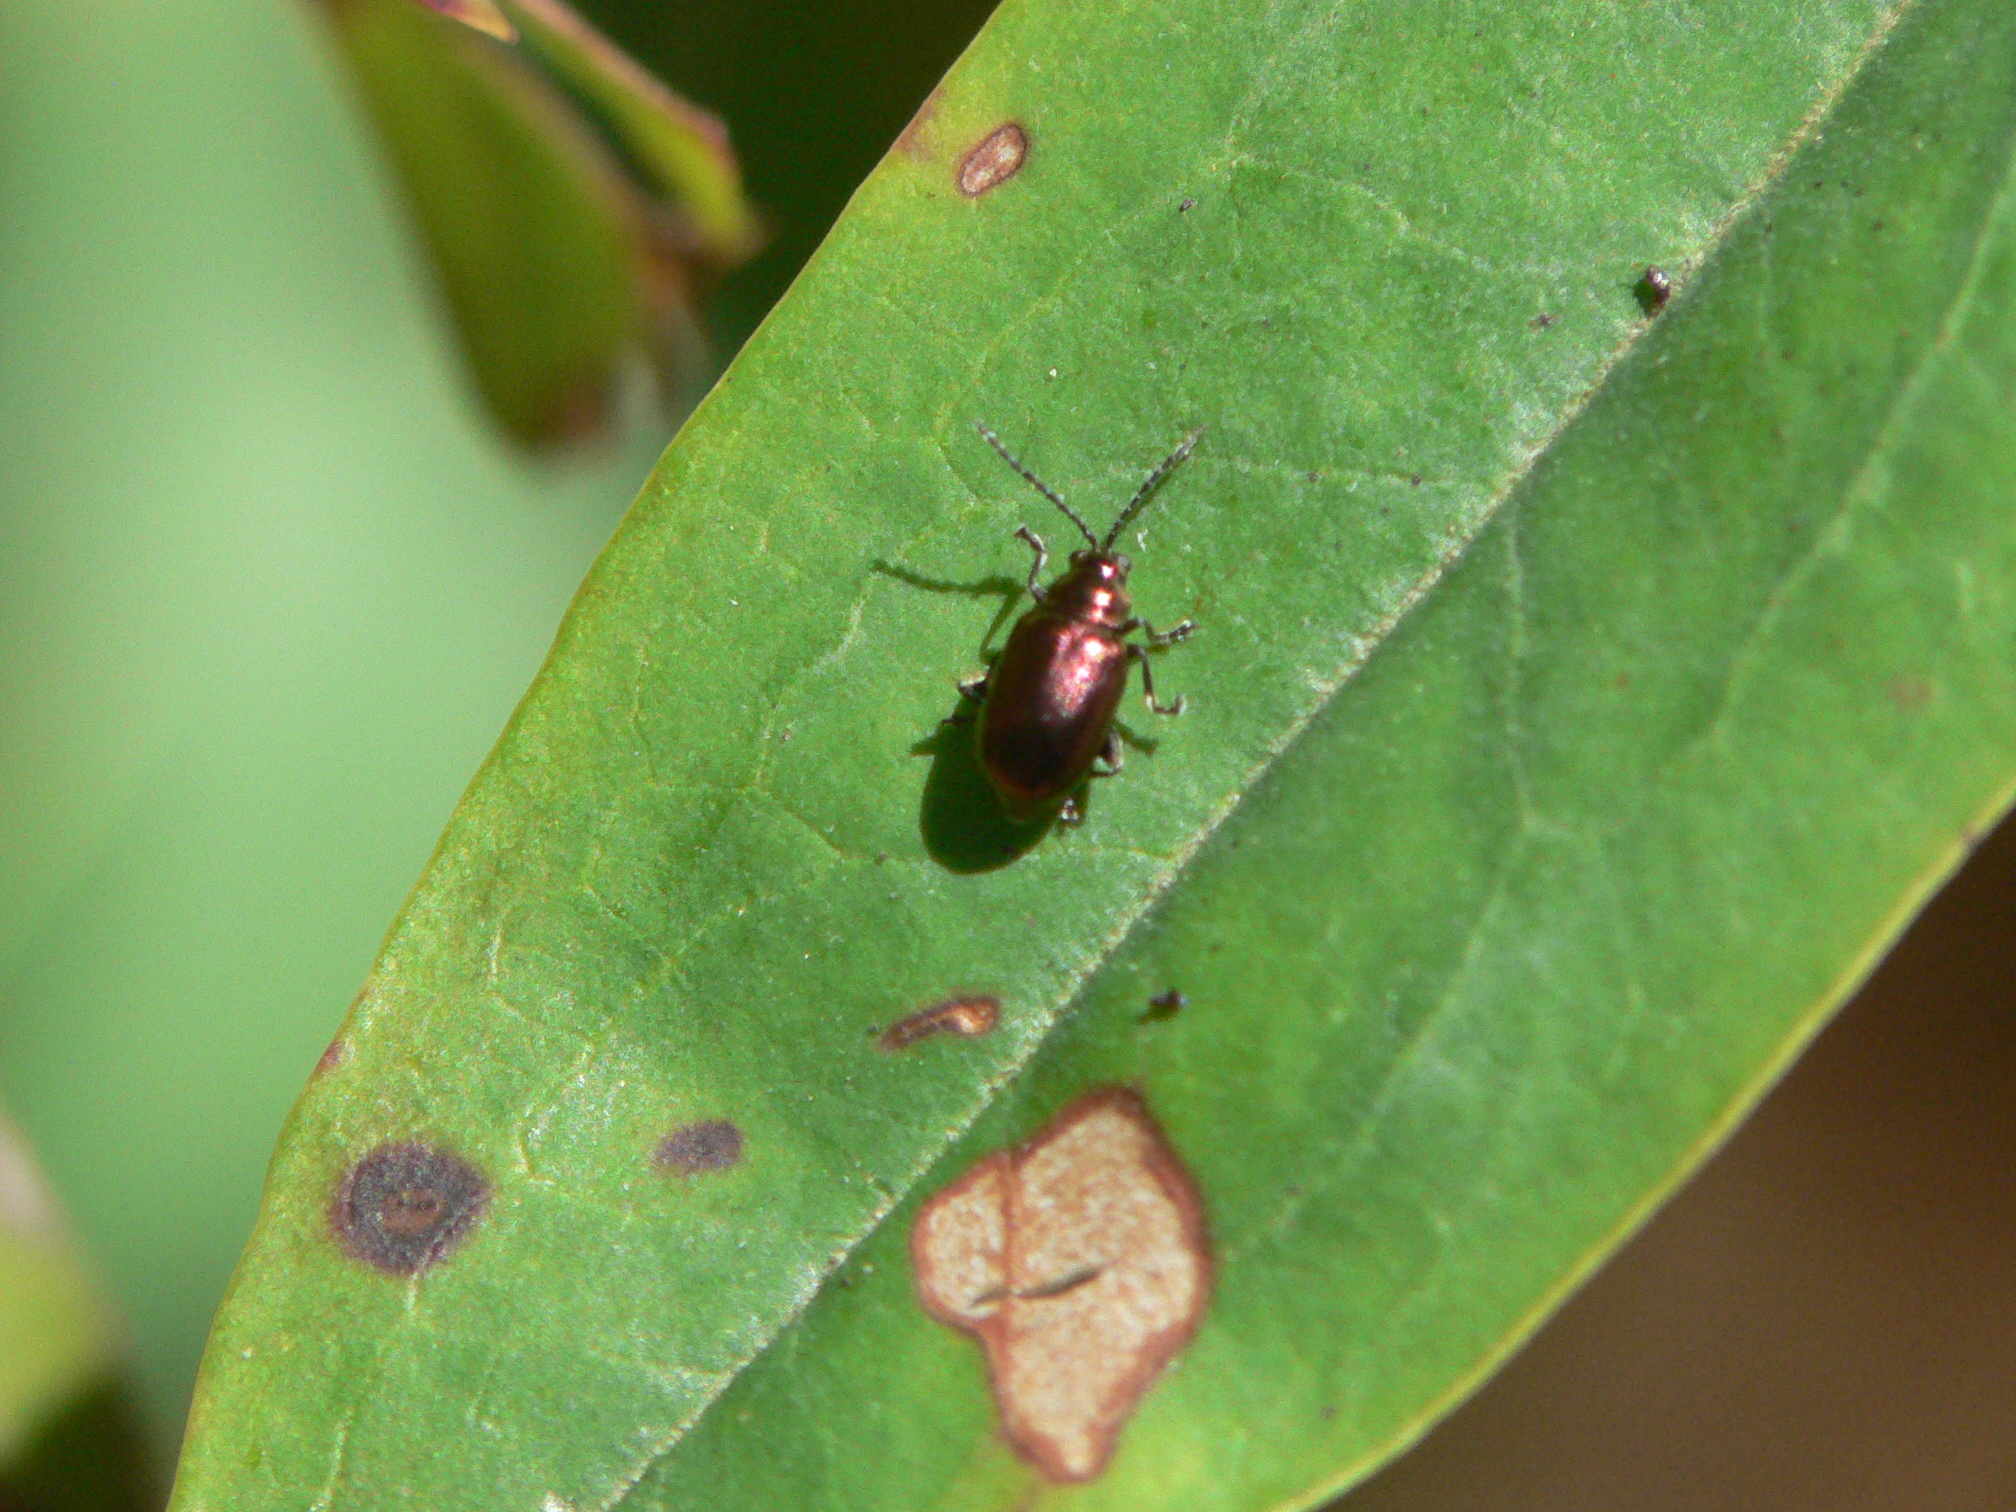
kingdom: Animalia
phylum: Arthropoda
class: Insecta
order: Coleoptera
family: Chrysomelidae
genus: Altica
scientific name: Altica kalmiae
